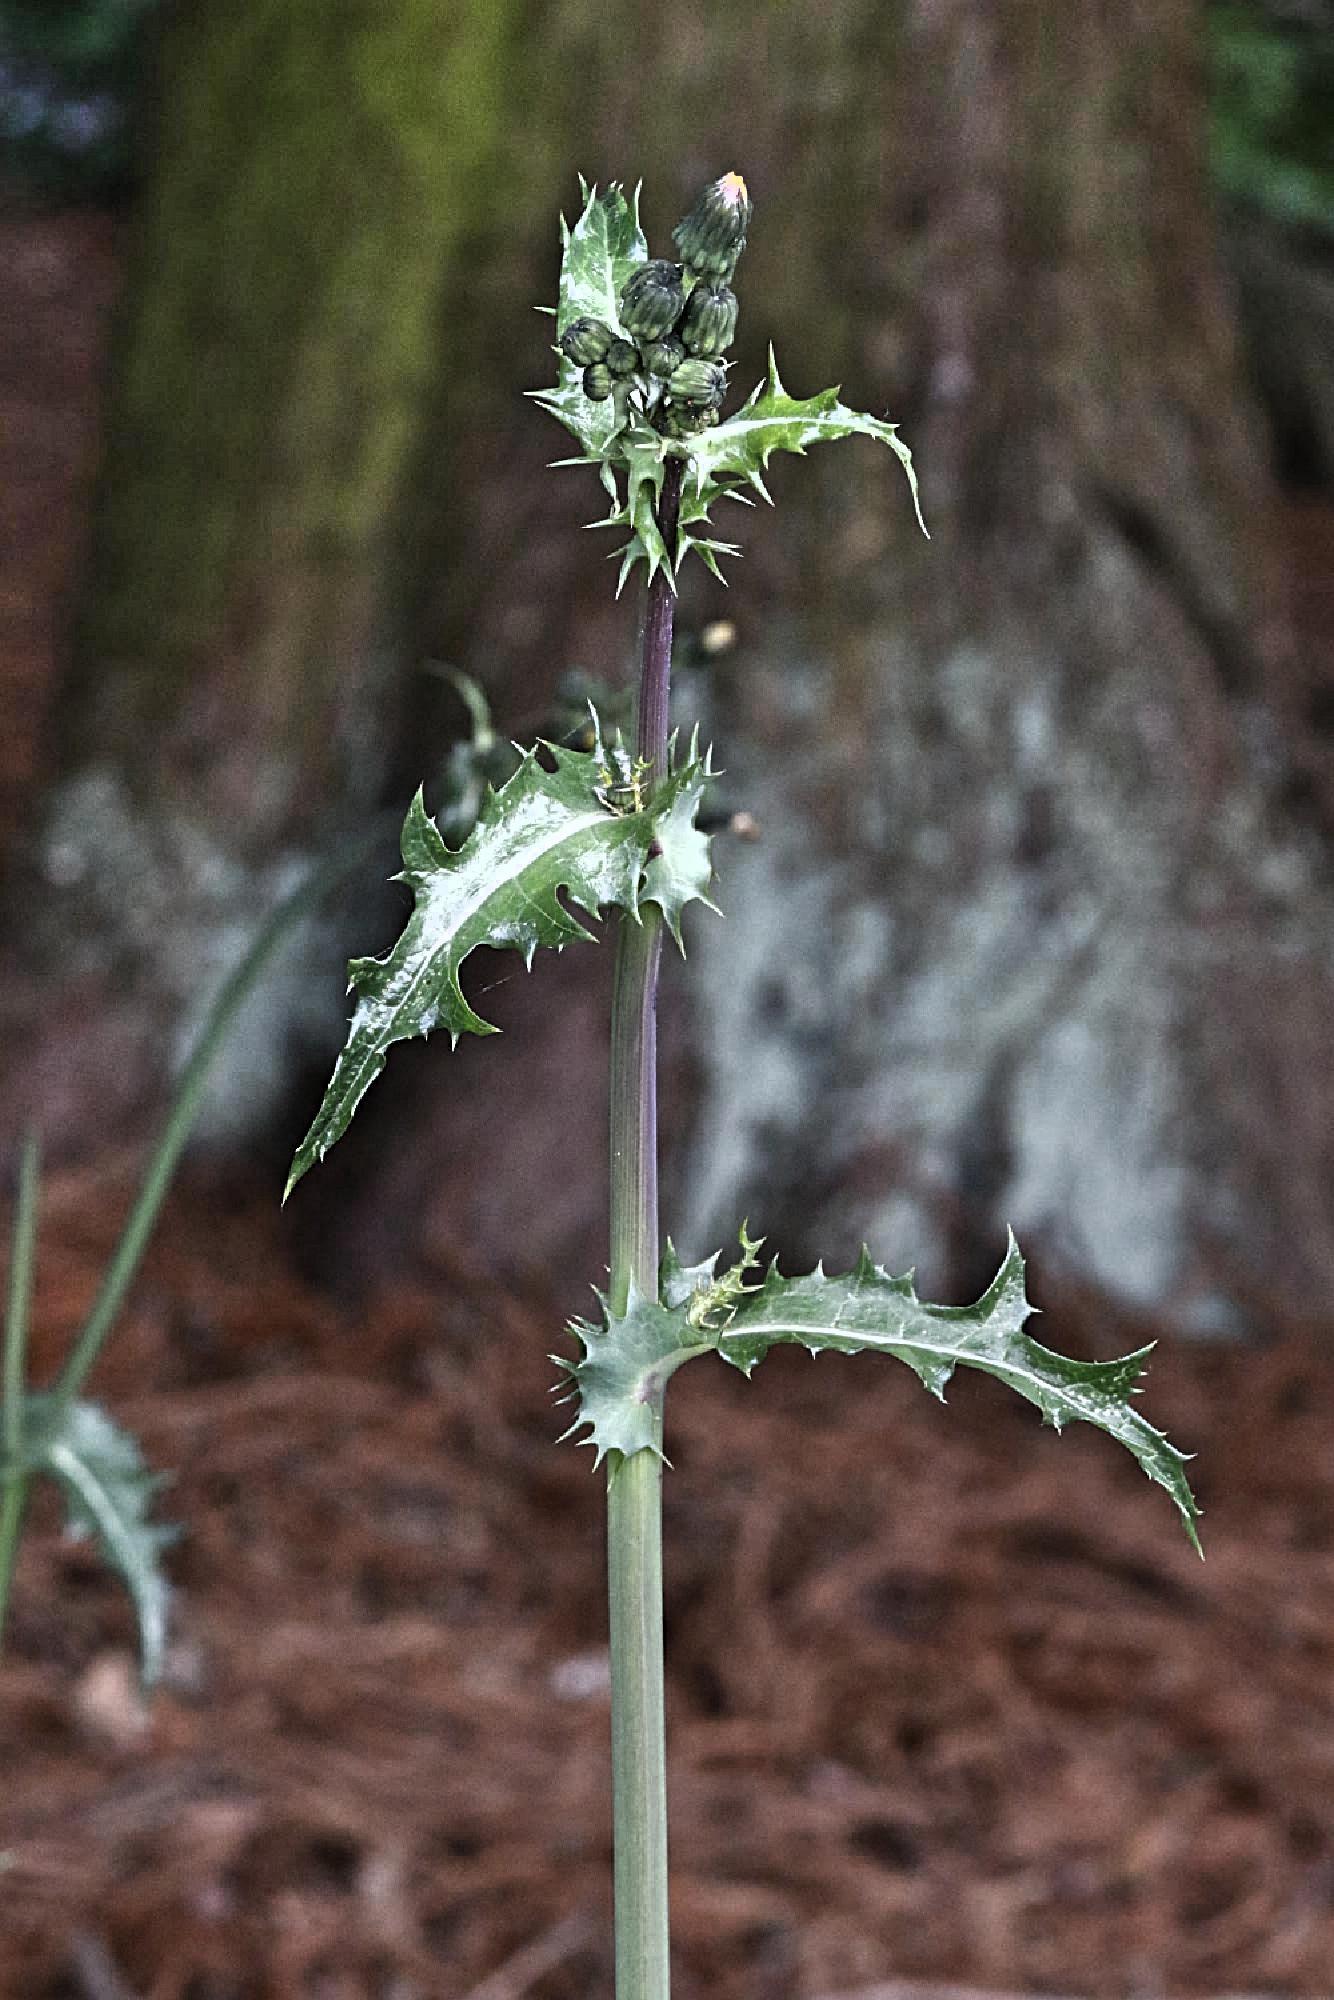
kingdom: Plantae
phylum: Tracheophyta
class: Magnoliopsida
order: Asterales
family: Asteraceae
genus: Sonchus
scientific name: Sonchus asper
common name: Prickly sow-thistle
